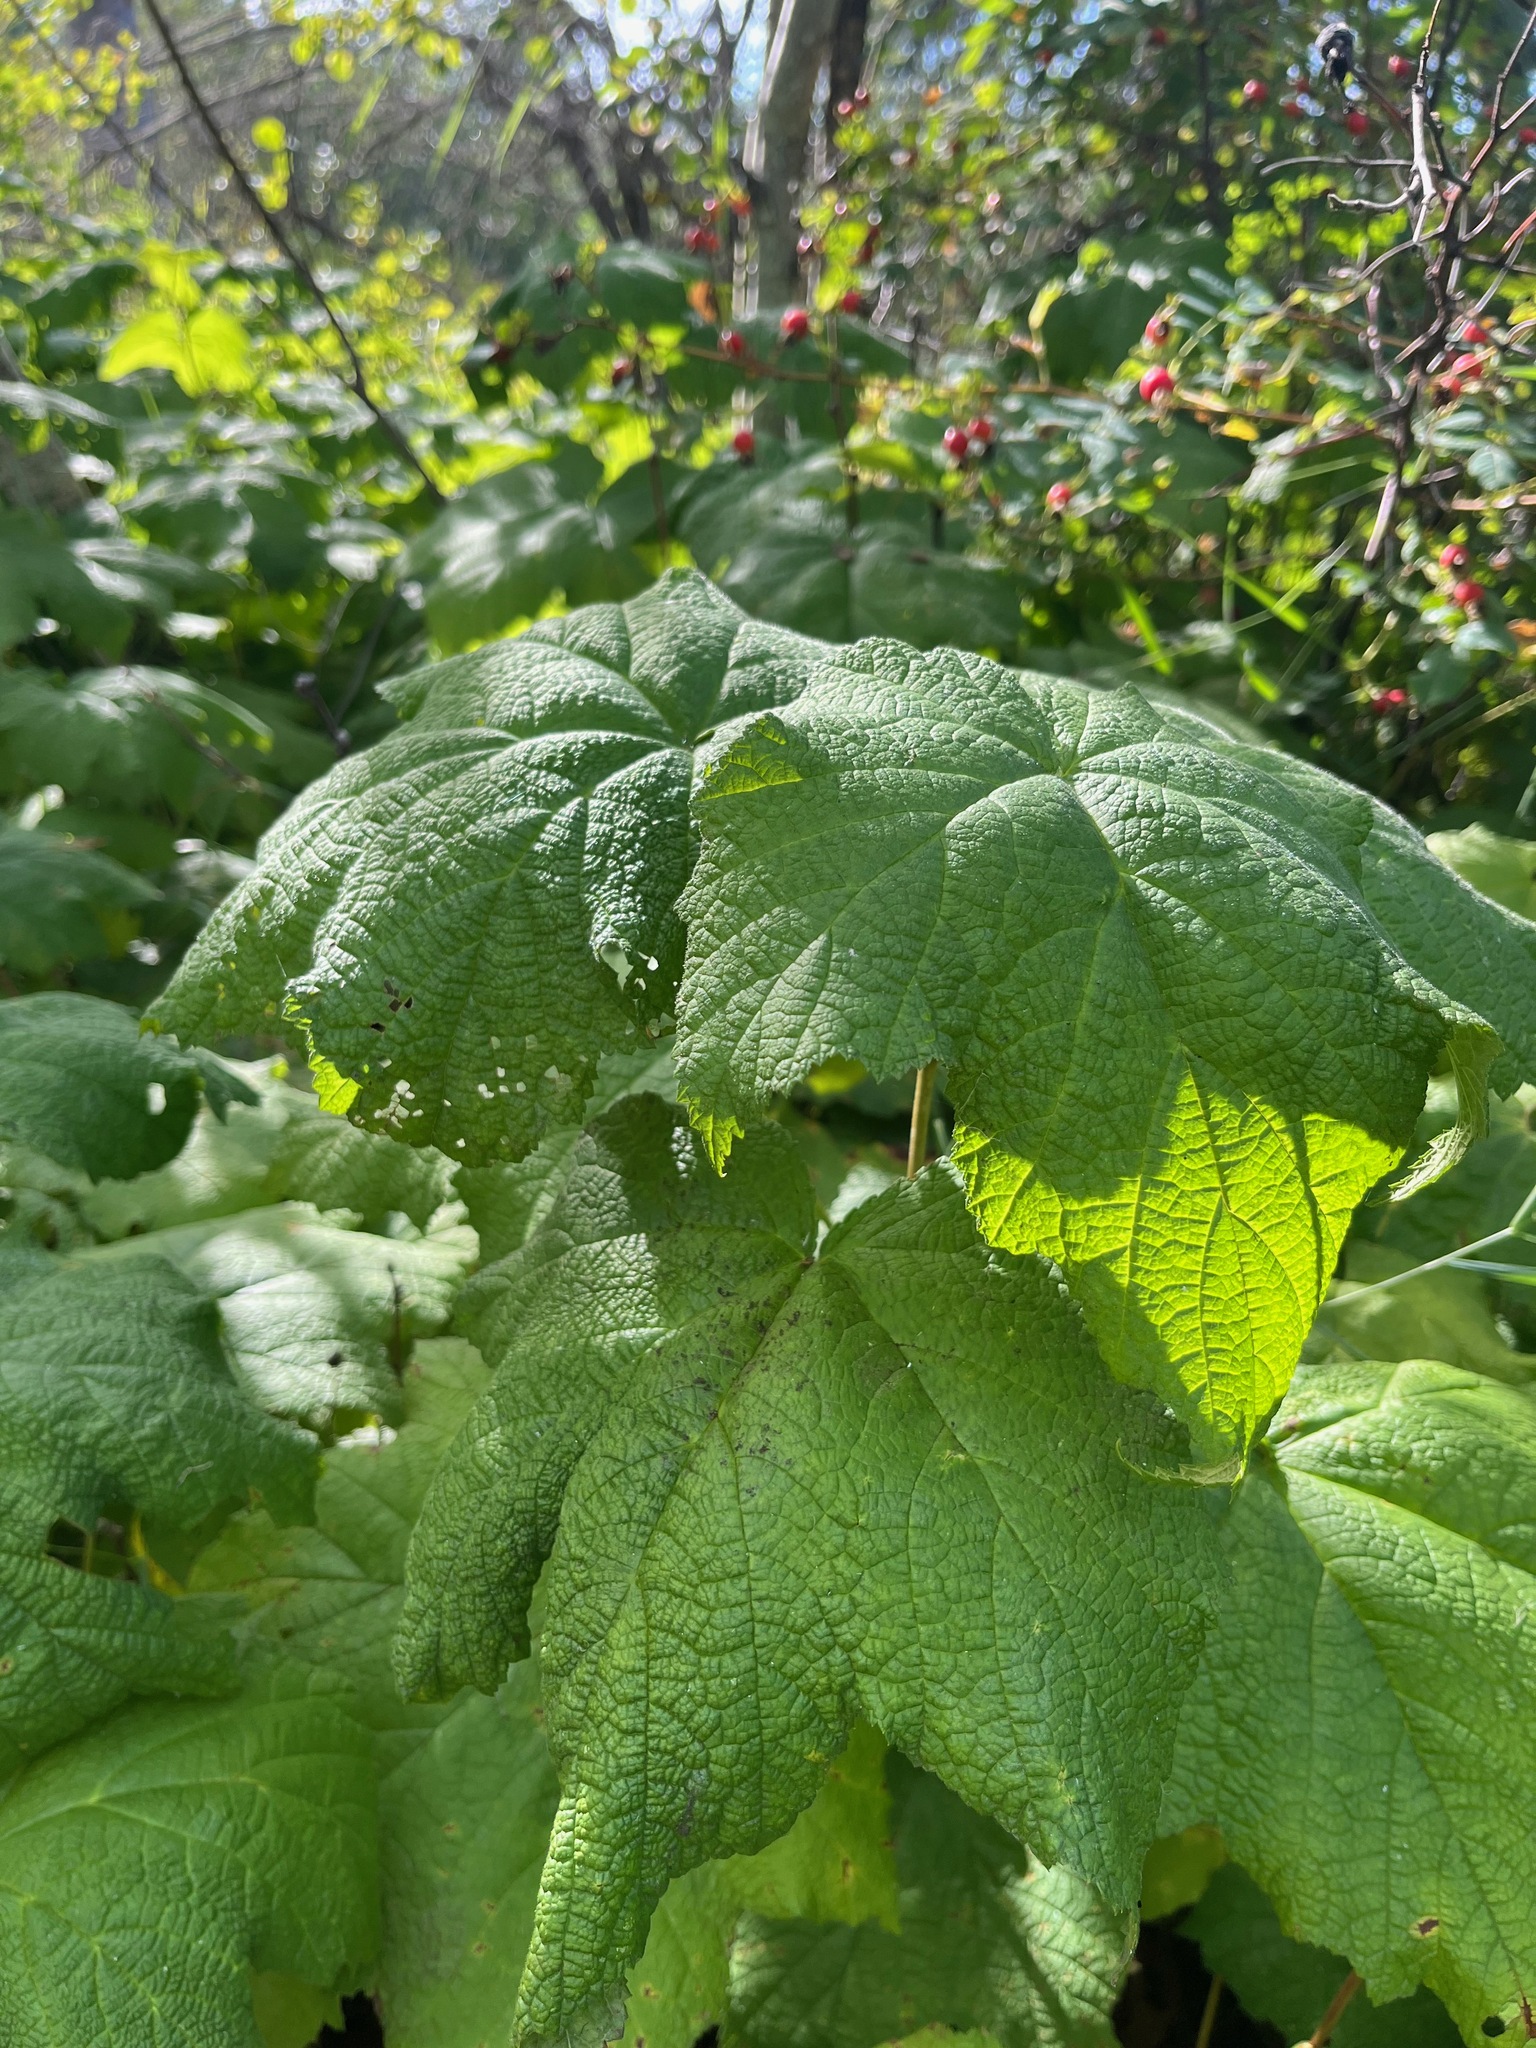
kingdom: Plantae
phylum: Tracheophyta
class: Magnoliopsida
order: Rosales
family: Rosaceae
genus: Rubus
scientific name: Rubus parviflorus
